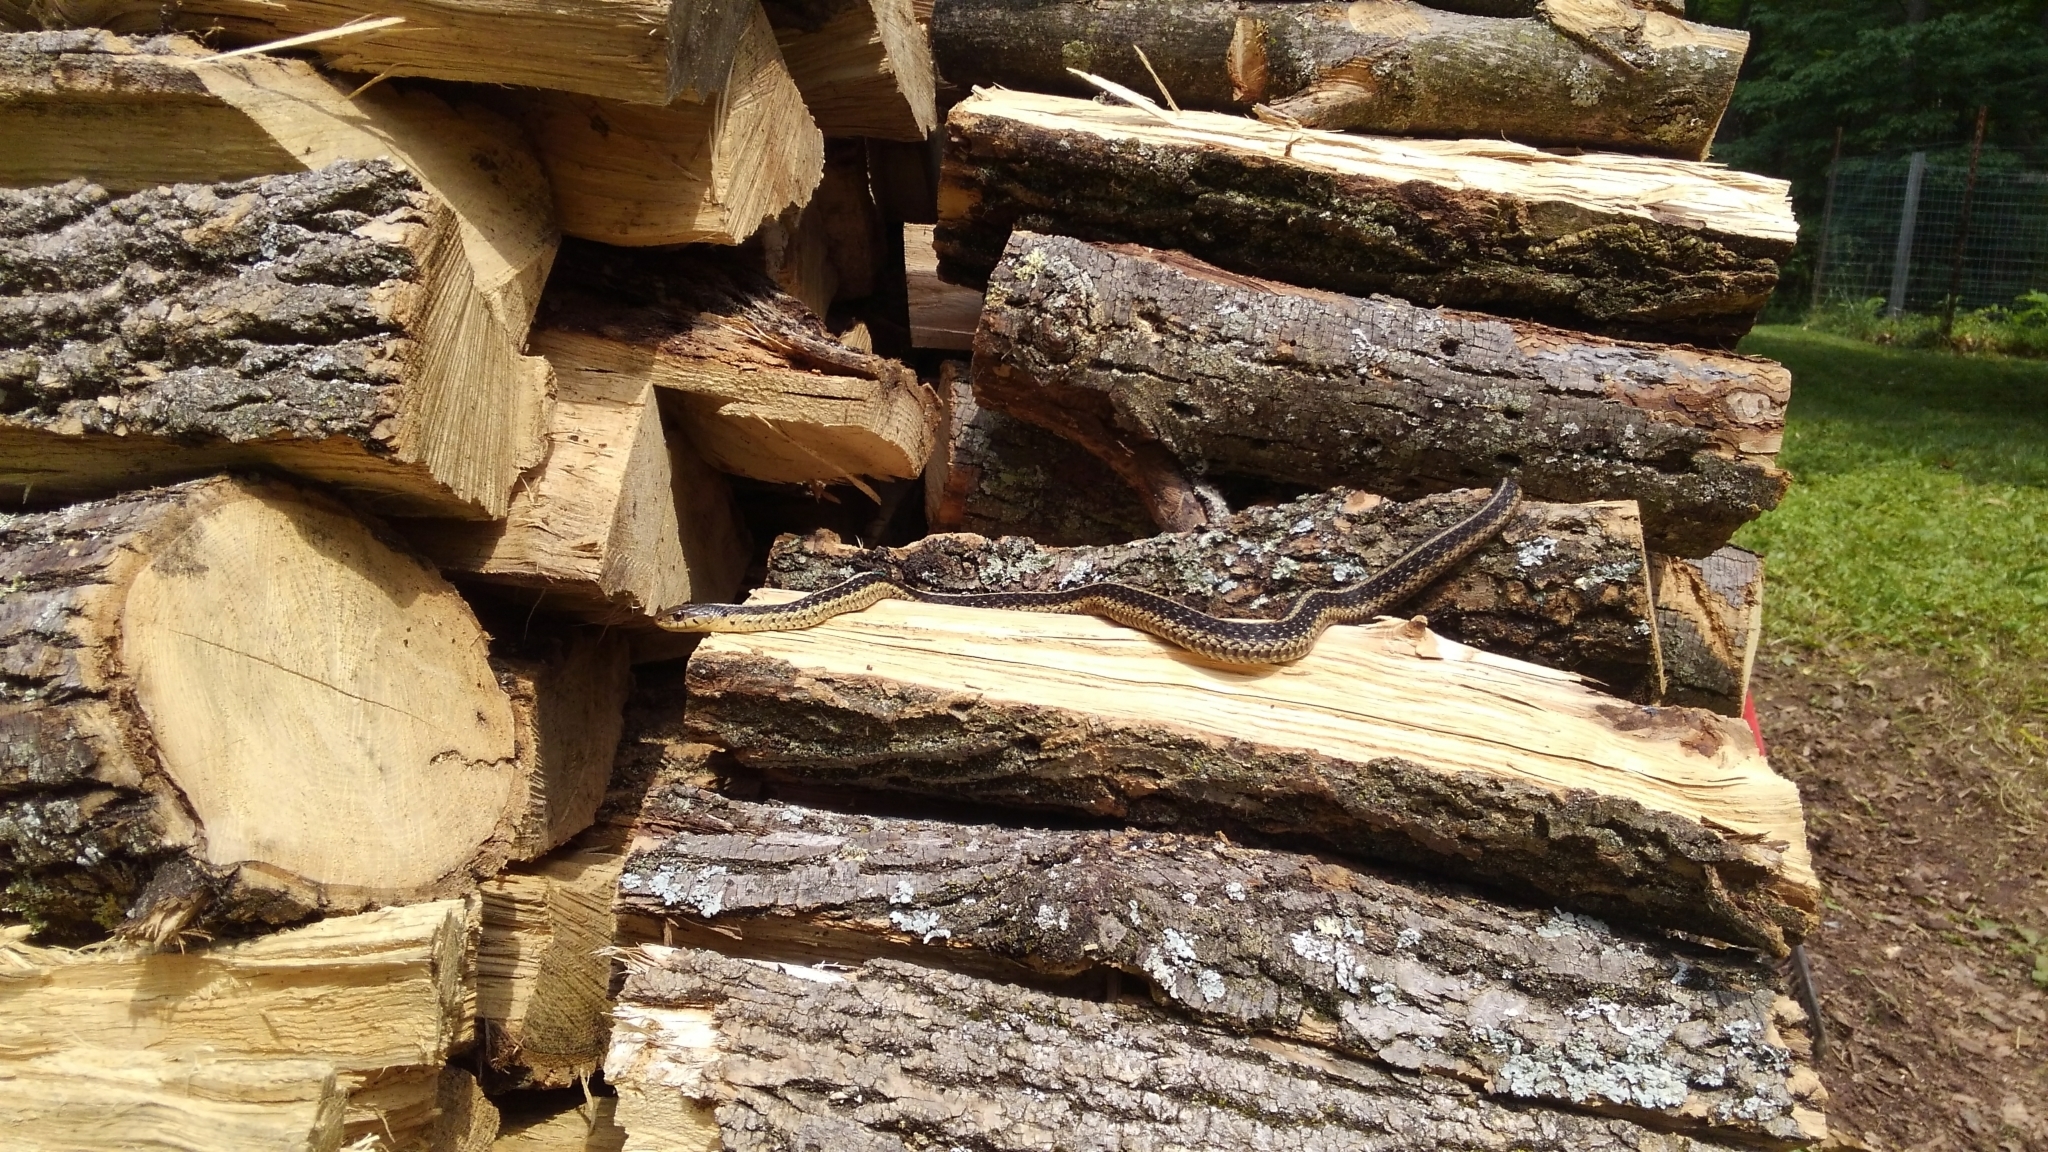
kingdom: Animalia
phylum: Chordata
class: Squamata
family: Colubridae
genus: Thamnophis
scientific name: Thamnophis sirtalis
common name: Common garter snake
